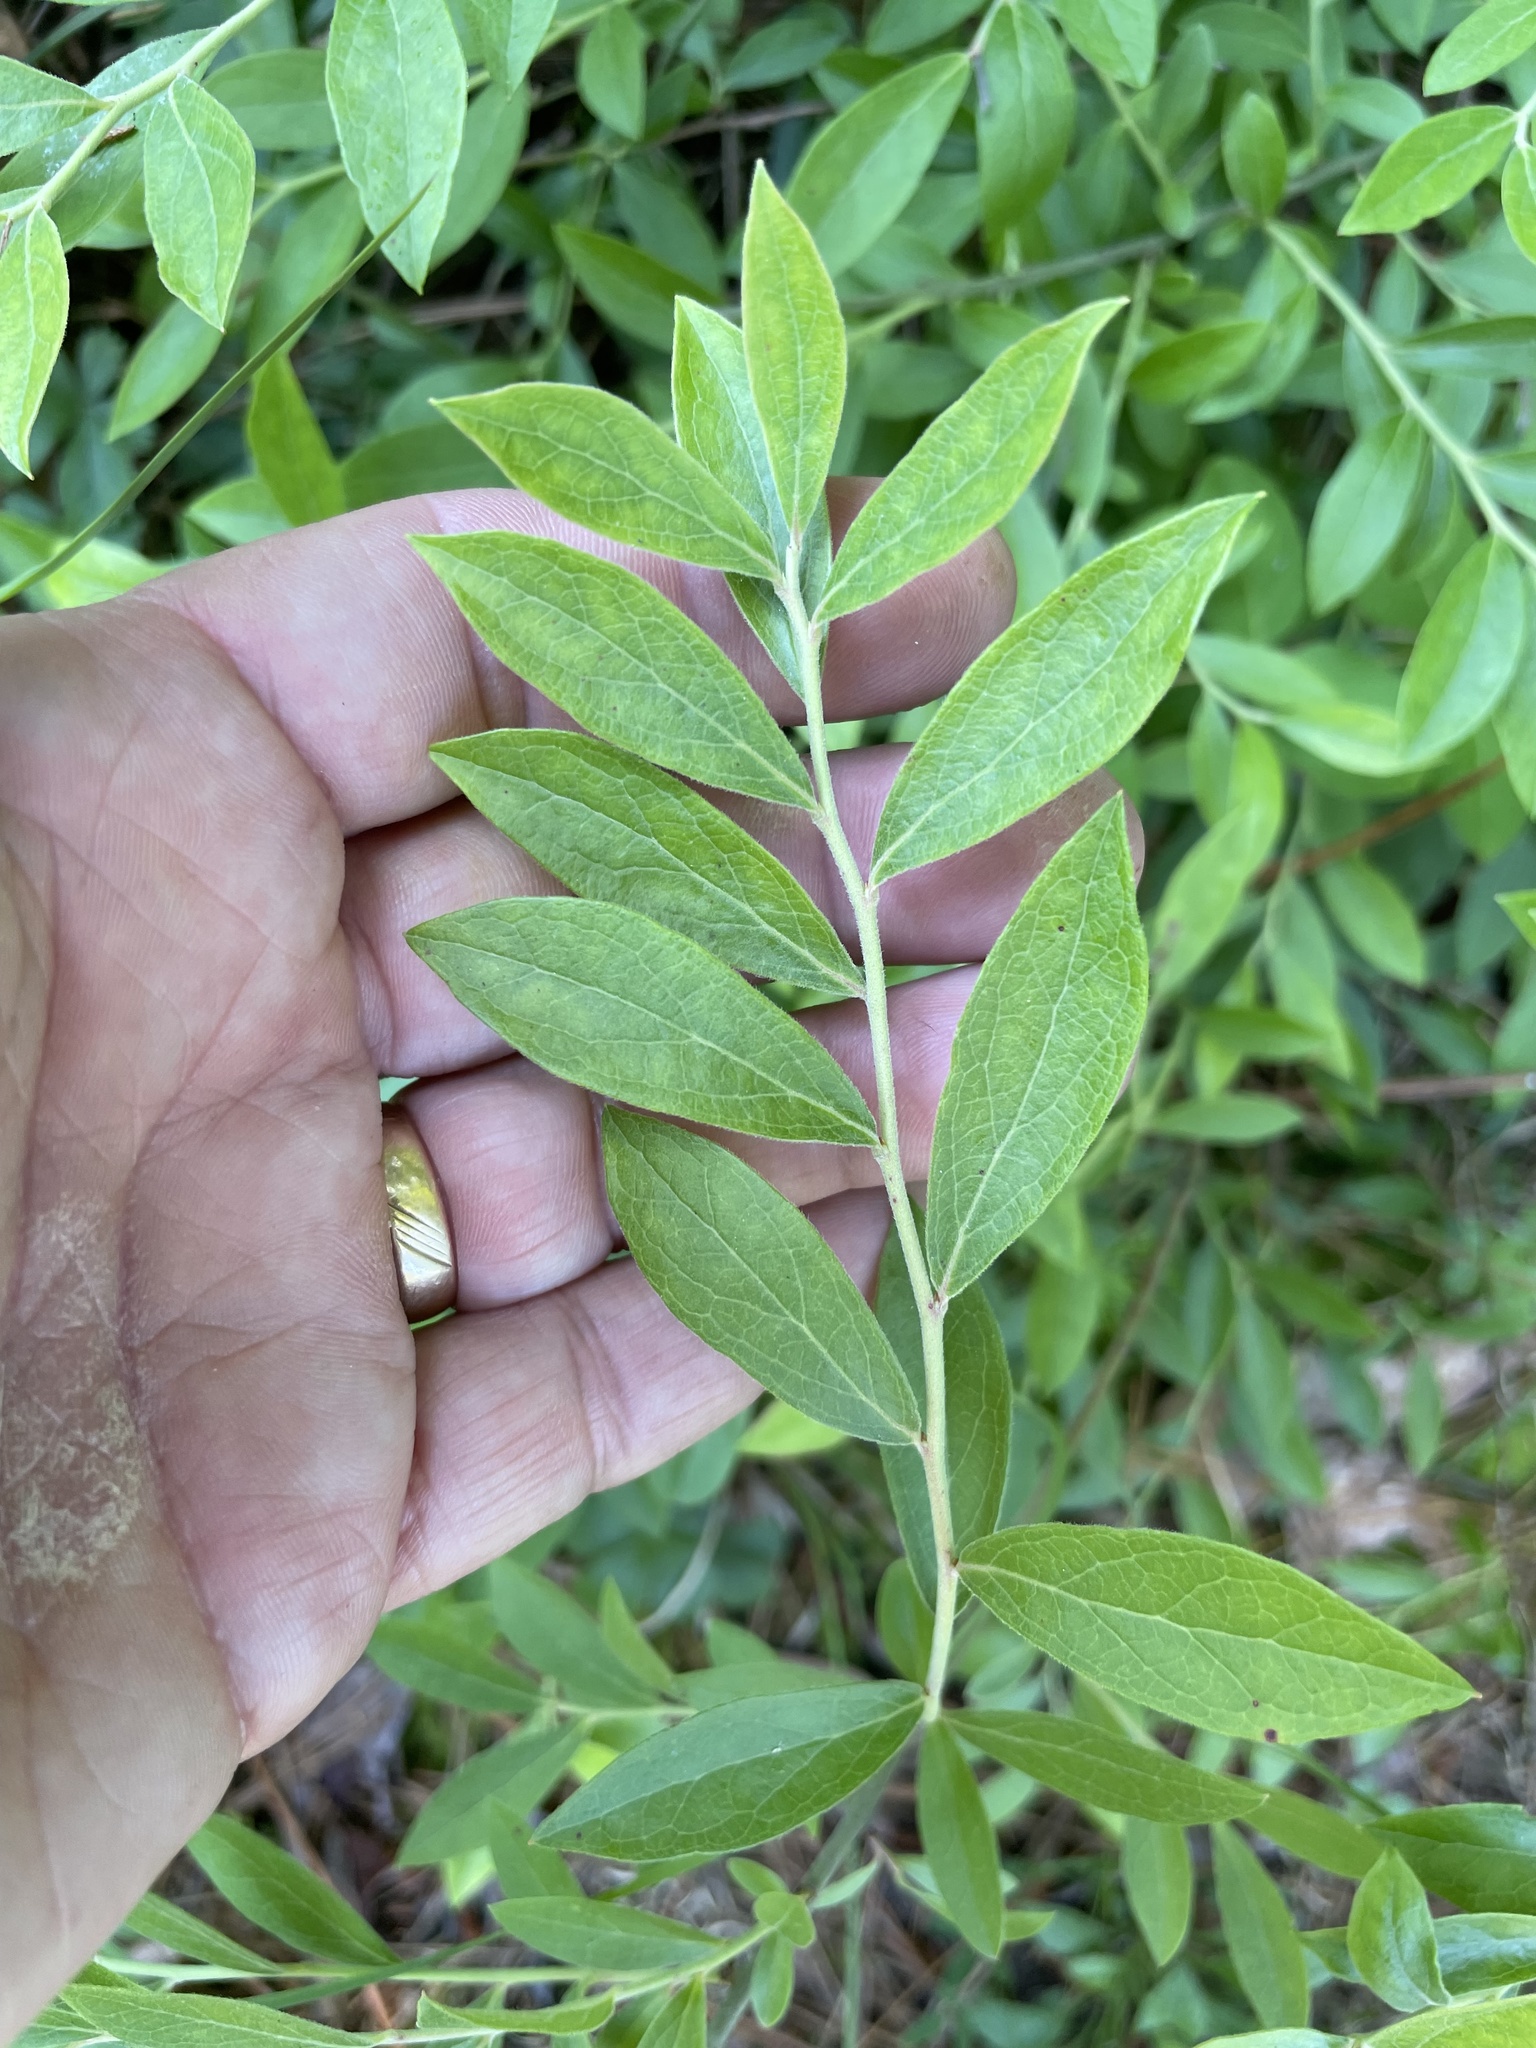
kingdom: Plantae
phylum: Tracheophyta
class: Magnoliopsida
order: Ericales
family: Ericaceae
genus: Vaccinium
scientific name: Vaccinium tenellum
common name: Southern blueberry
